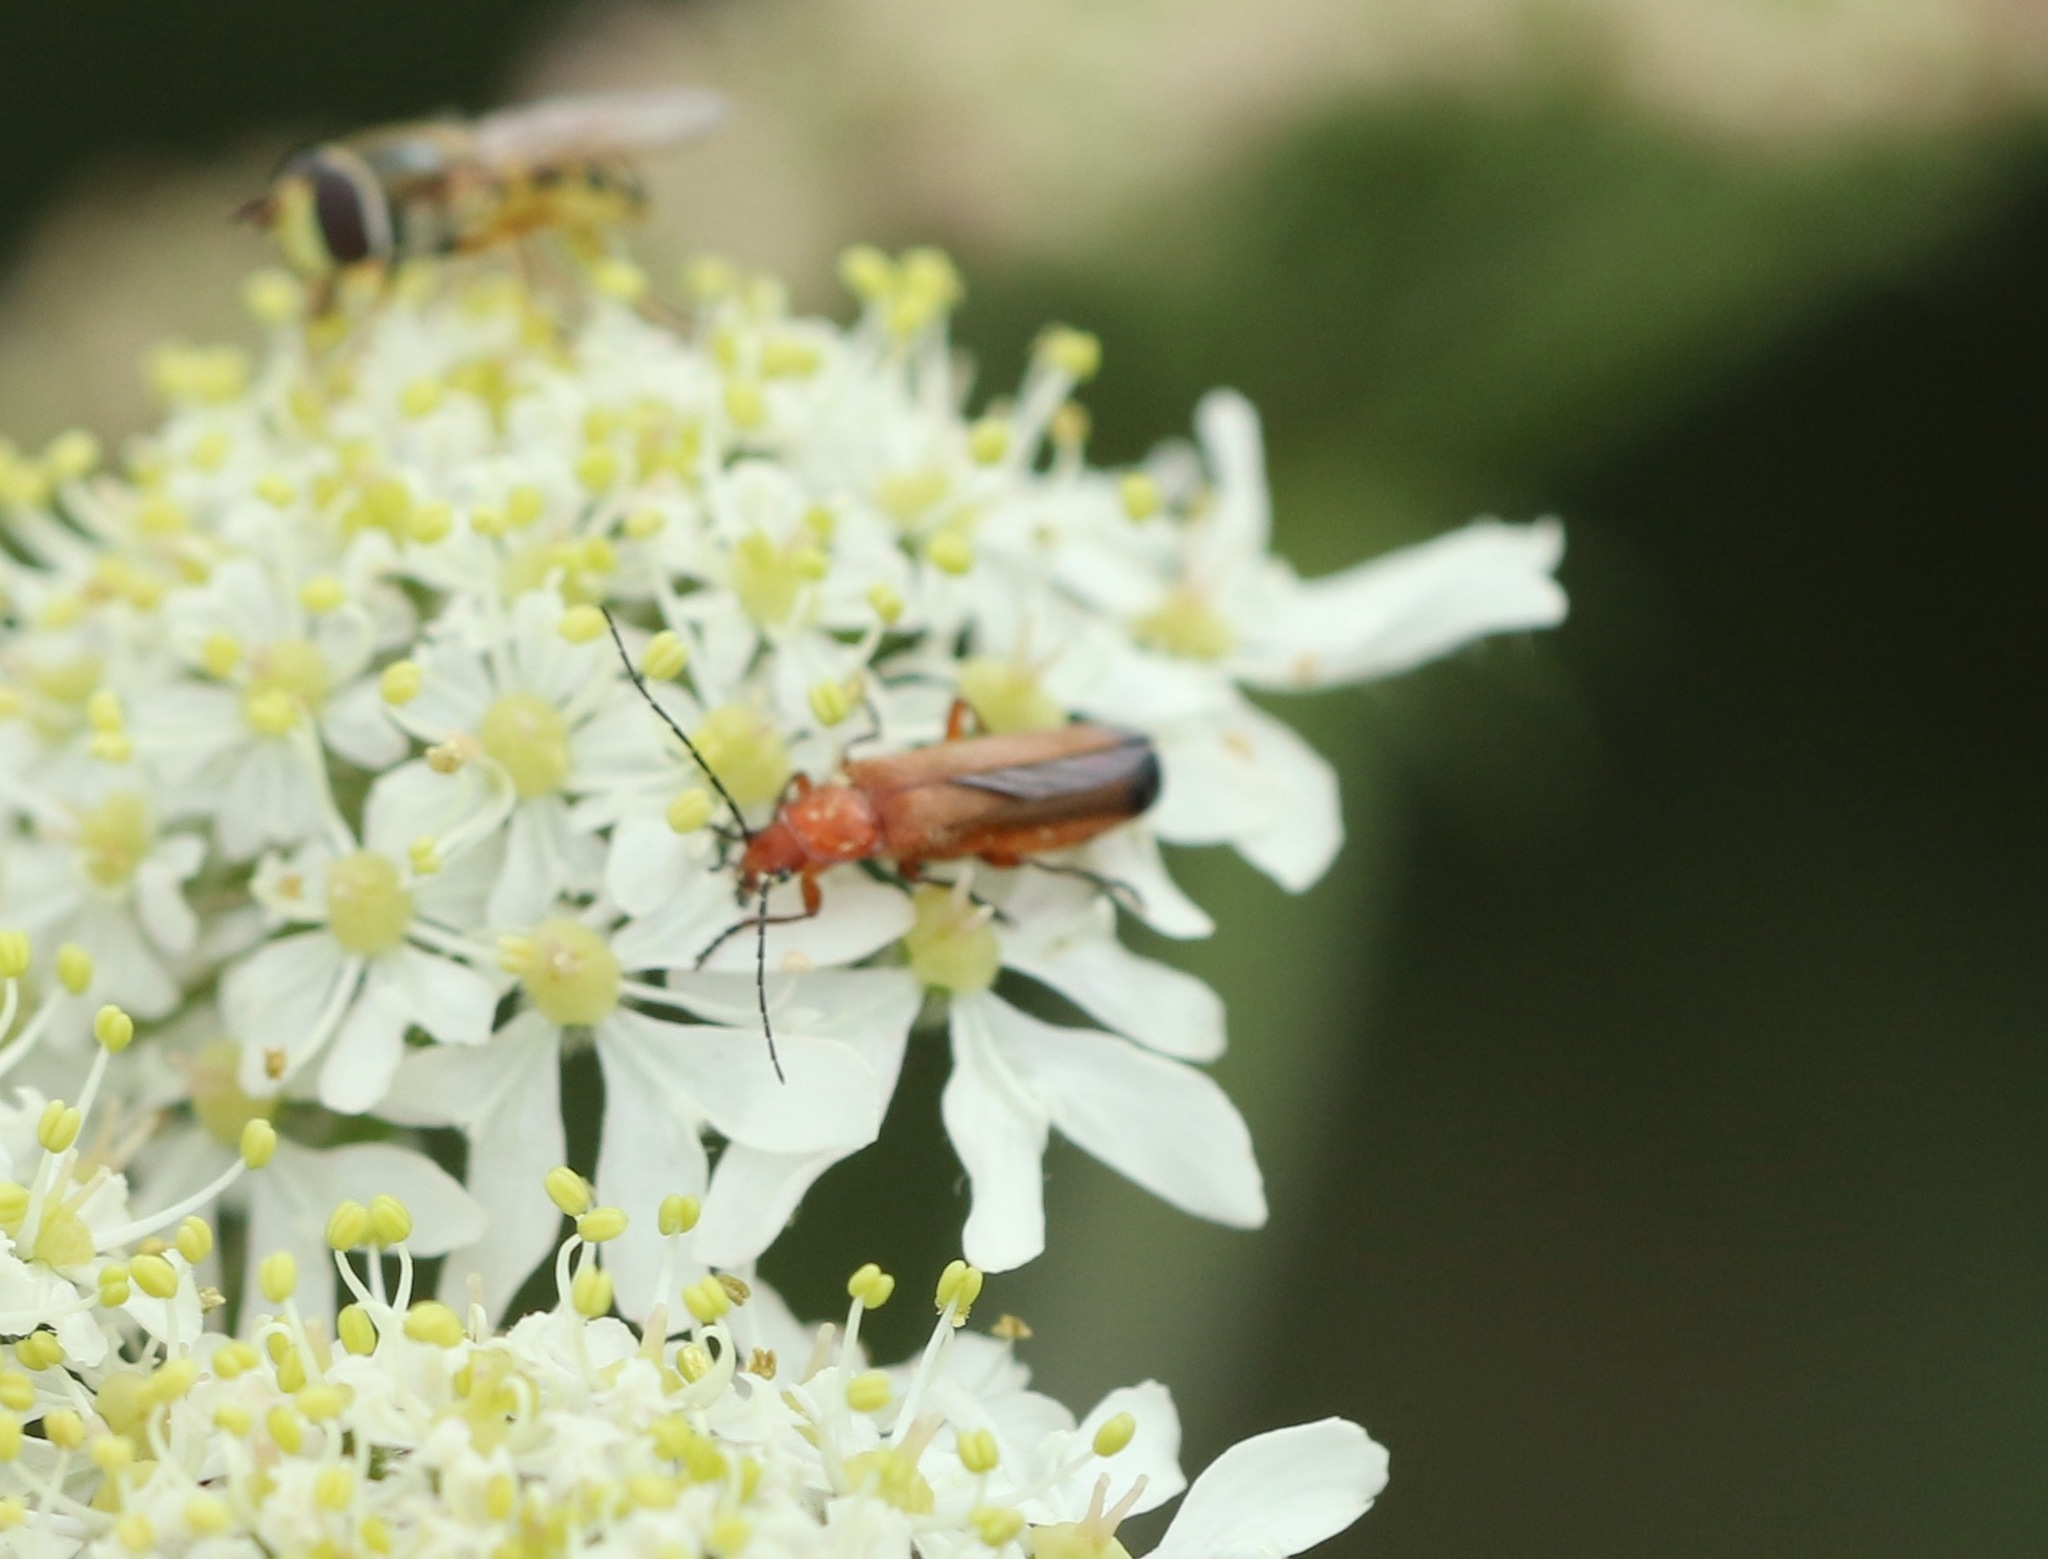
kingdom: Animalia
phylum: Arthropoda
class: Insecta
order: Coleoptera
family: Cantharidae
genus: Rhagonycha
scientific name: Rhagonycha fulva
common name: Common red soldier beetle
